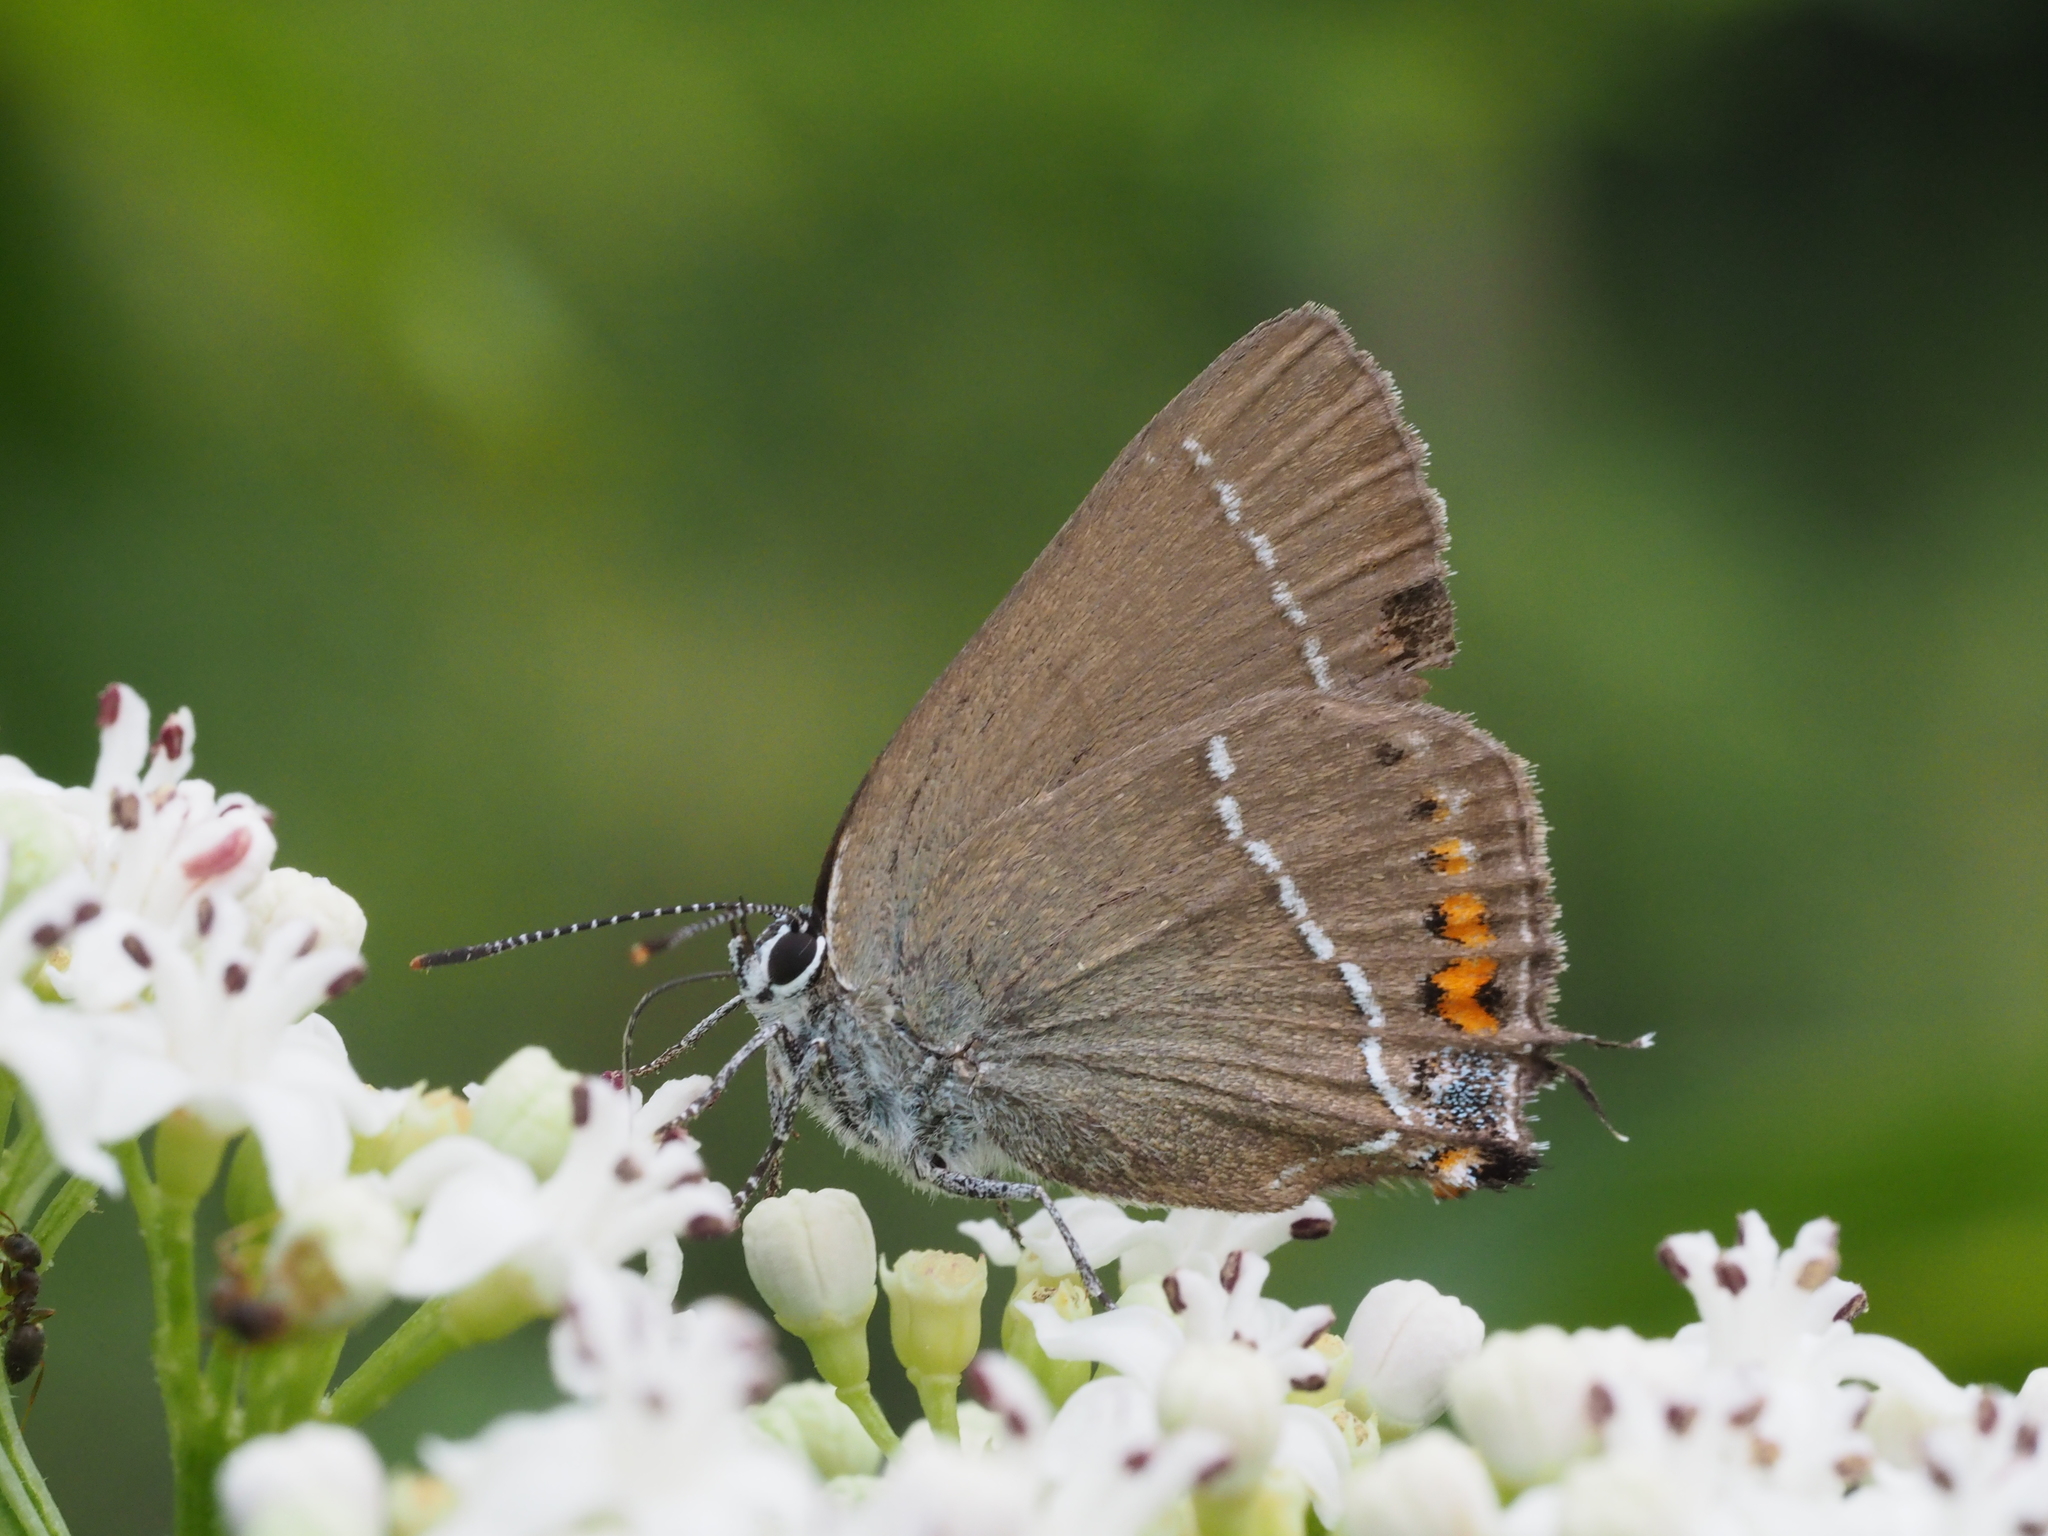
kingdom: Animalia
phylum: Arthropoda
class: Insecta
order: Lepidoptera
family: Lycaenidae
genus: Tuttiola
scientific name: Tuttiola spini
